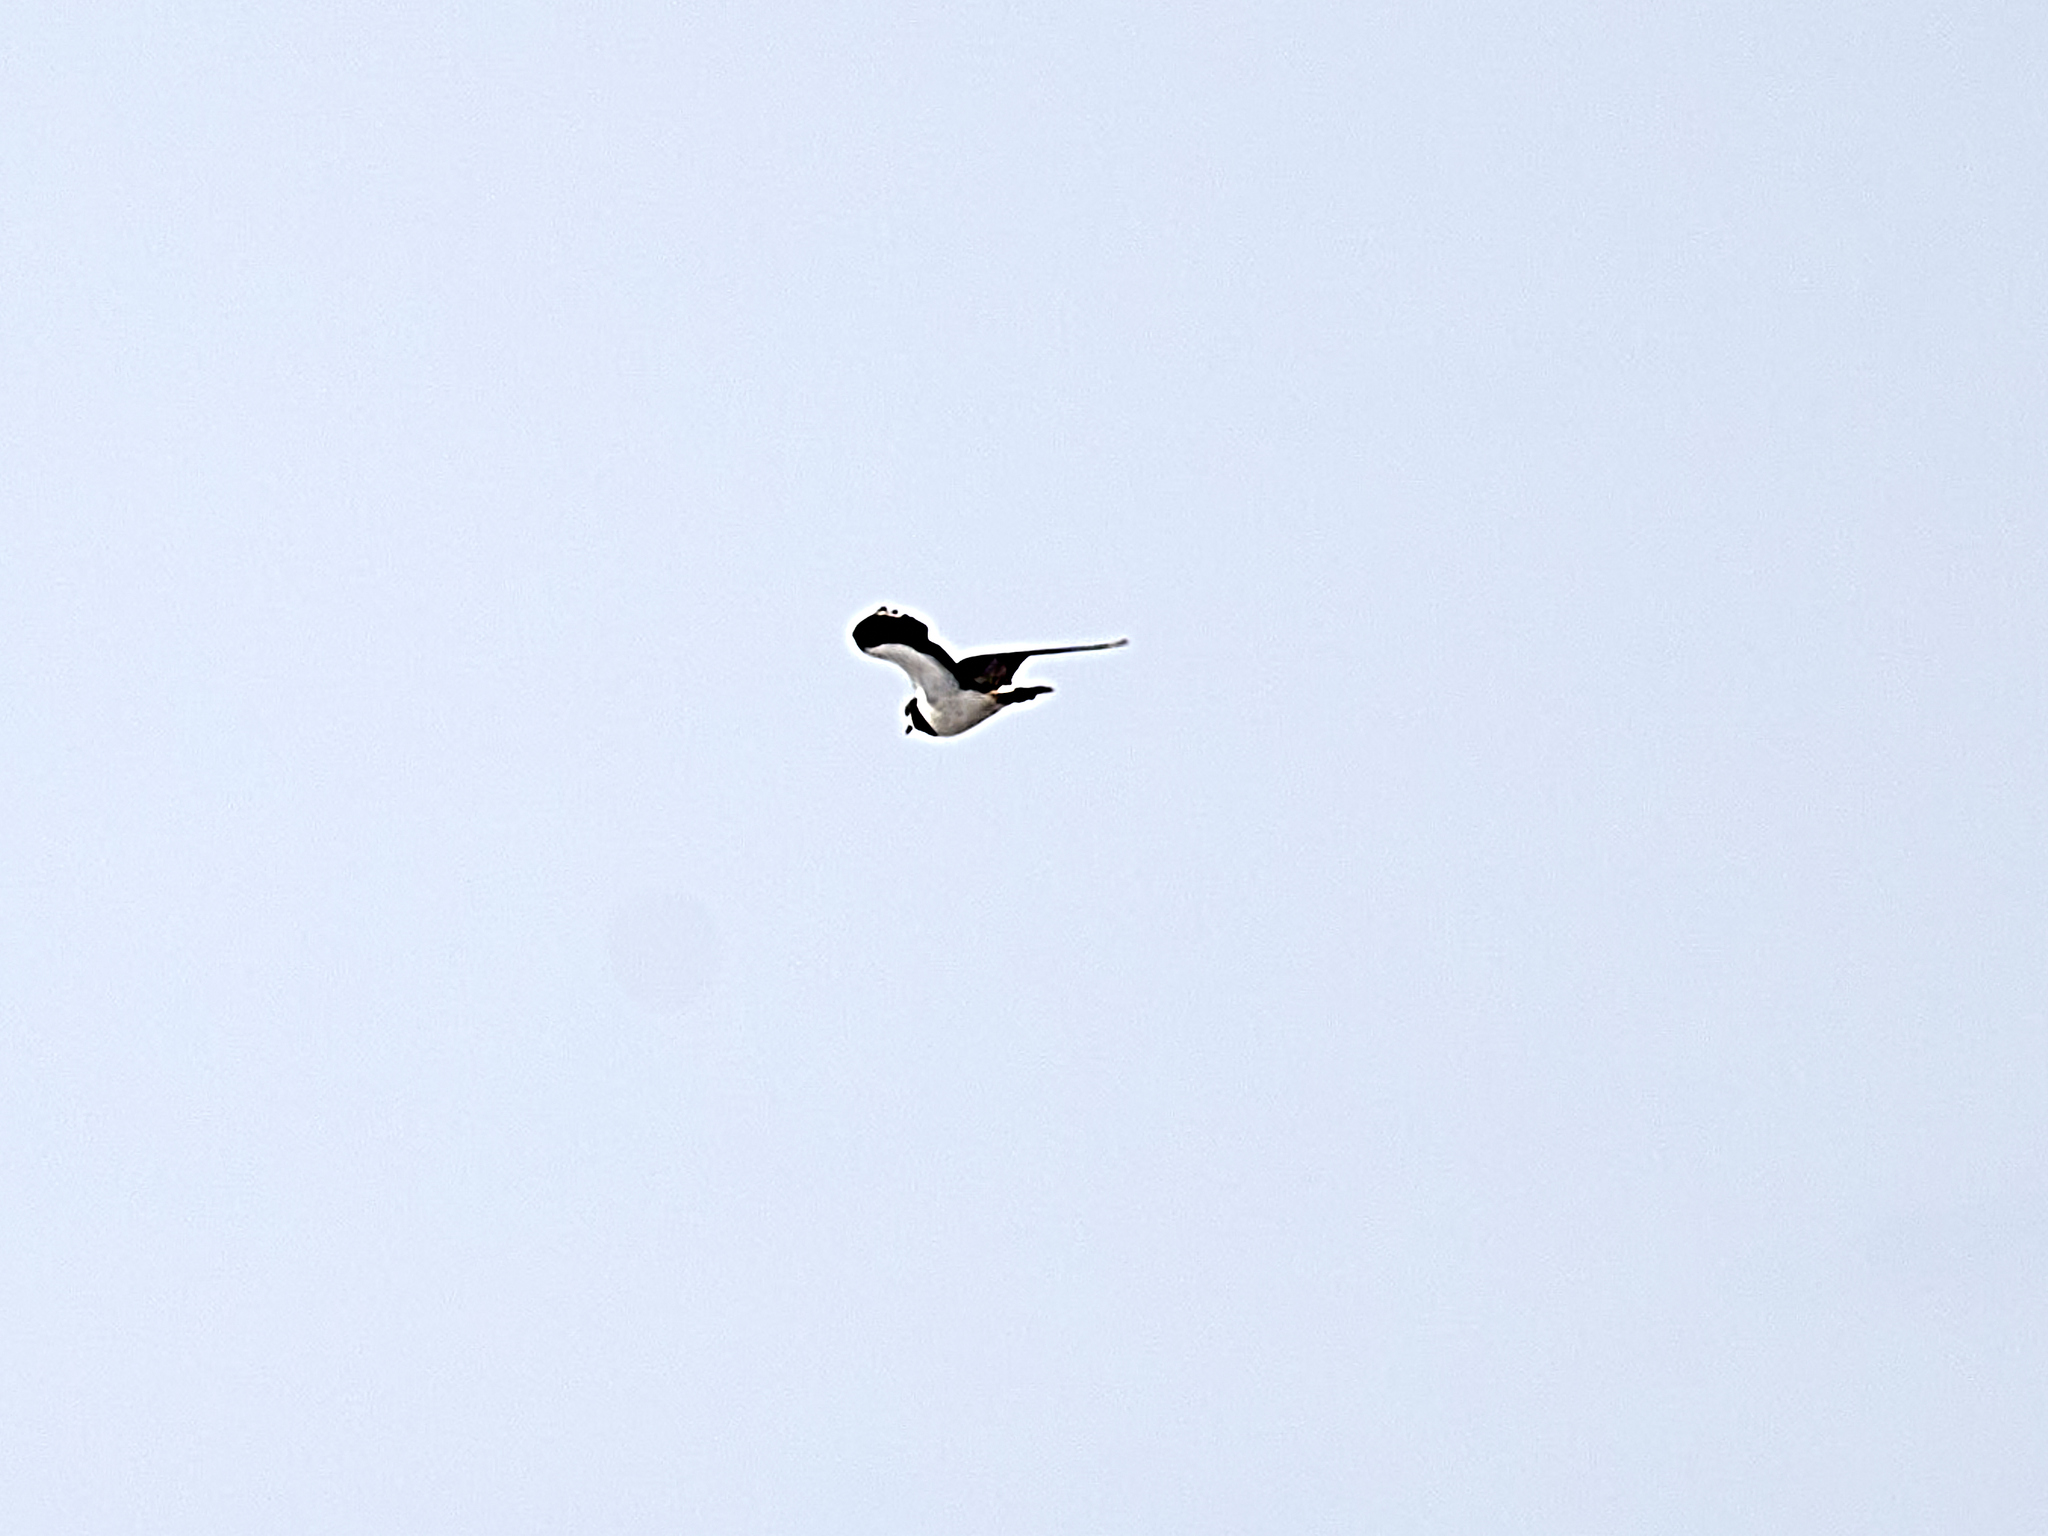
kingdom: Animalia
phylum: Chordata
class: Aves
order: Charadriiformes
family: Charadriidae
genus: Vanellus
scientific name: Vanellus vanellus
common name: Northern lapwing
